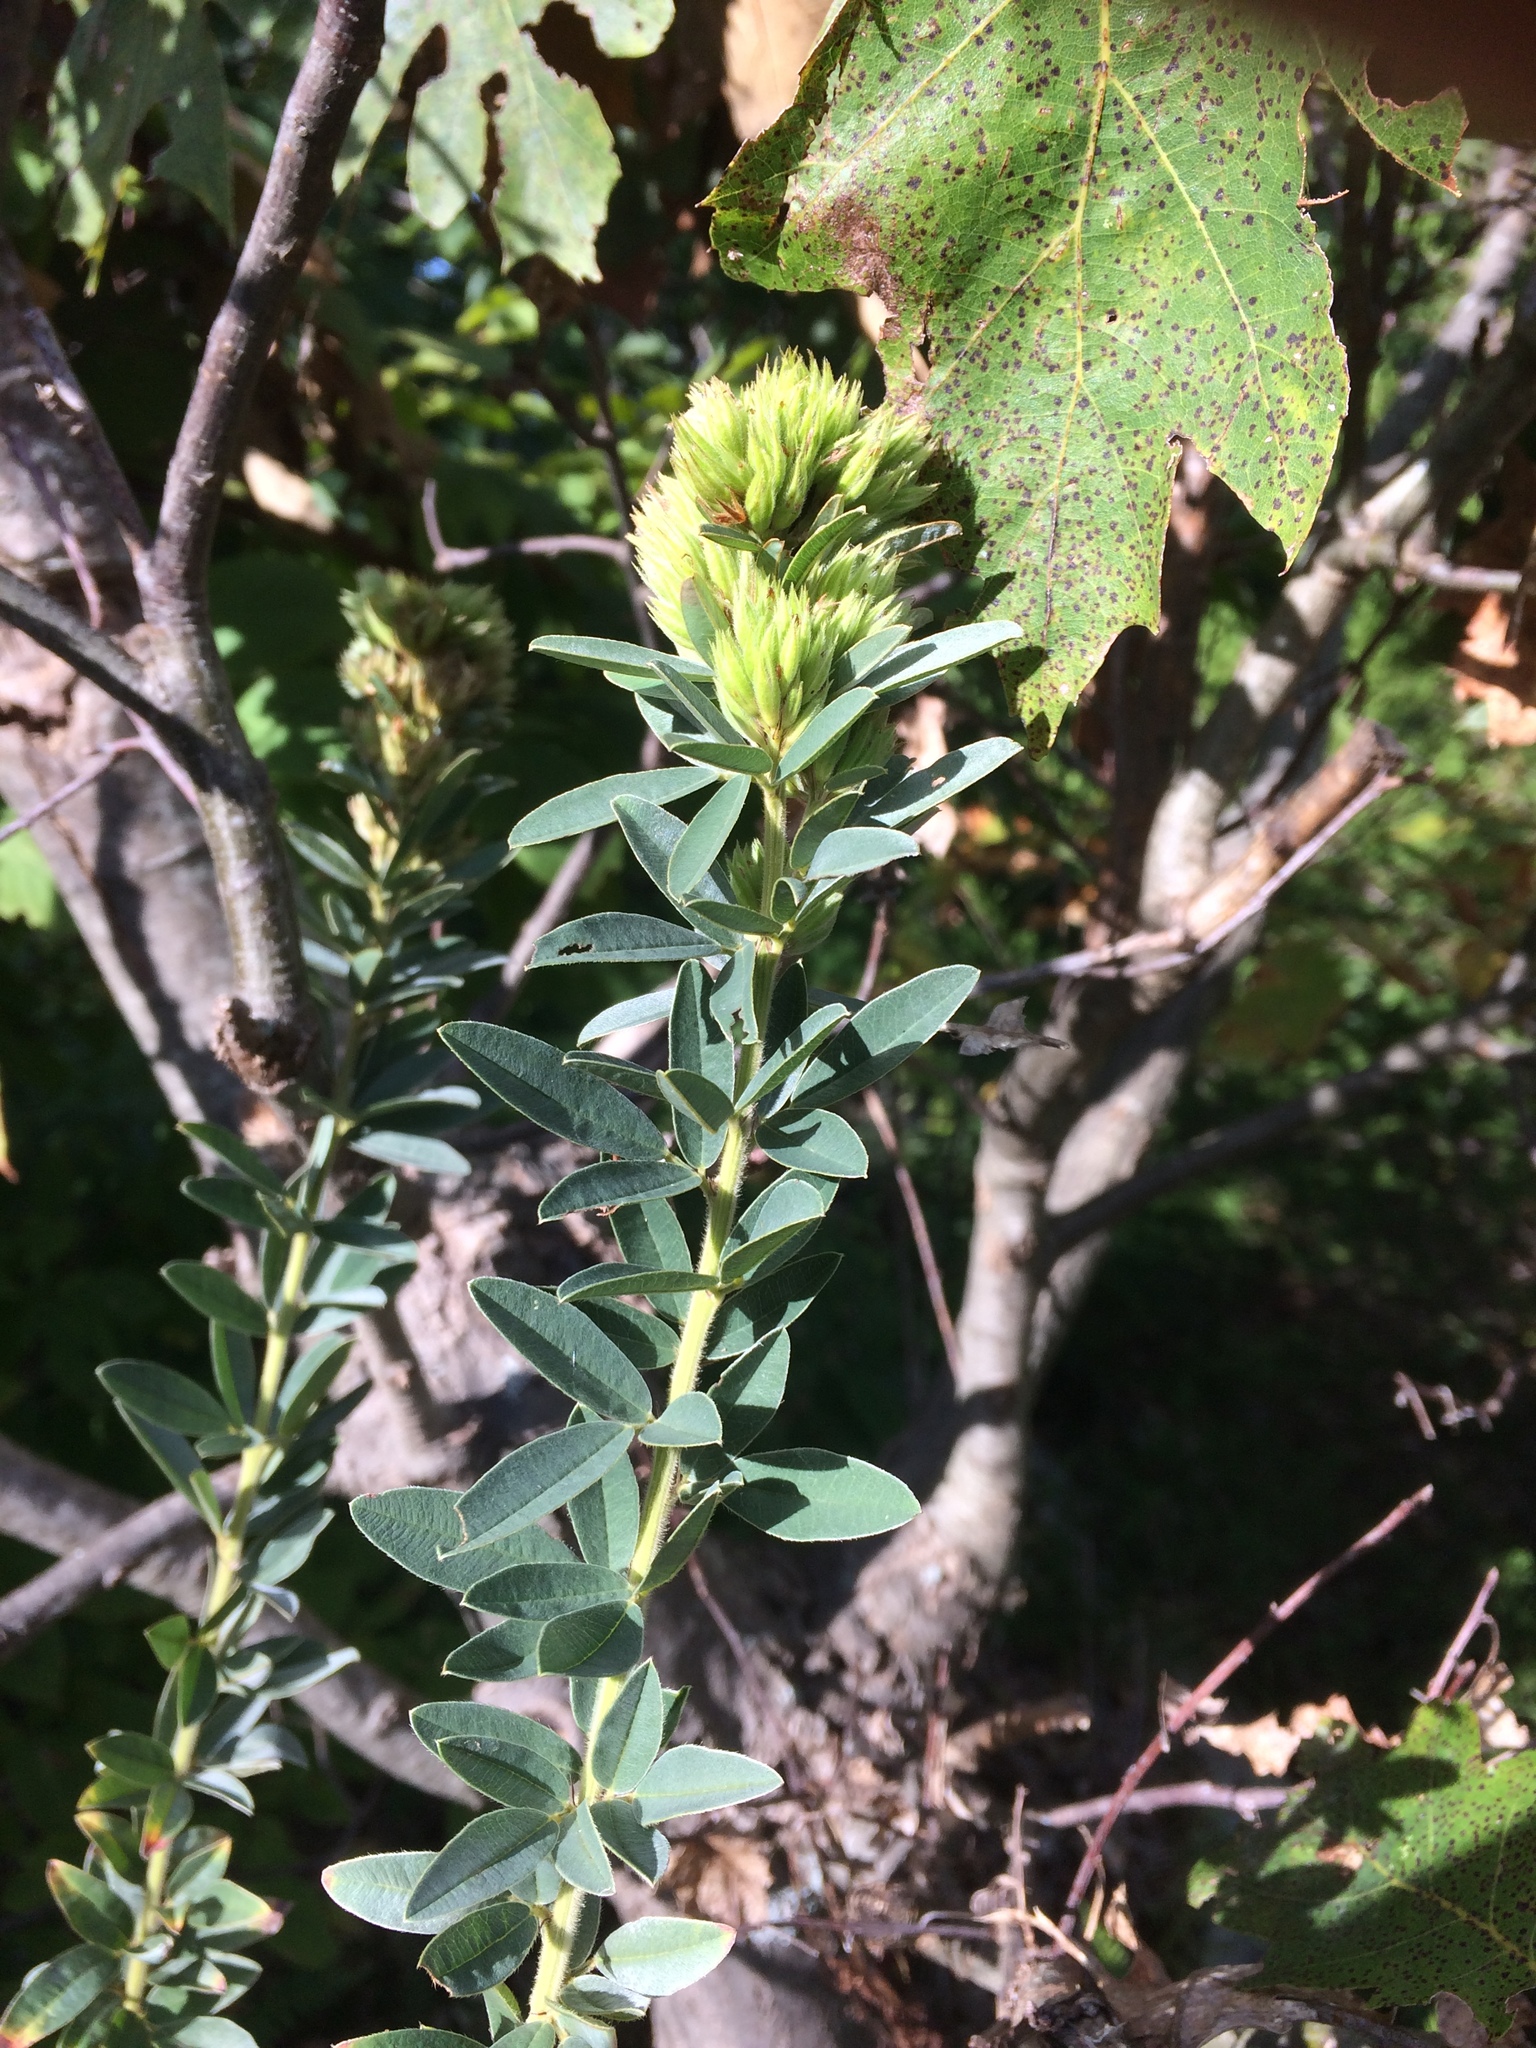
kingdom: Plantae
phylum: Tracheophyta
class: Magnoliopsida
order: Fabales
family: Fabaceae
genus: Lespedeza
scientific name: Lespedeza capitata
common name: Dusty clover
